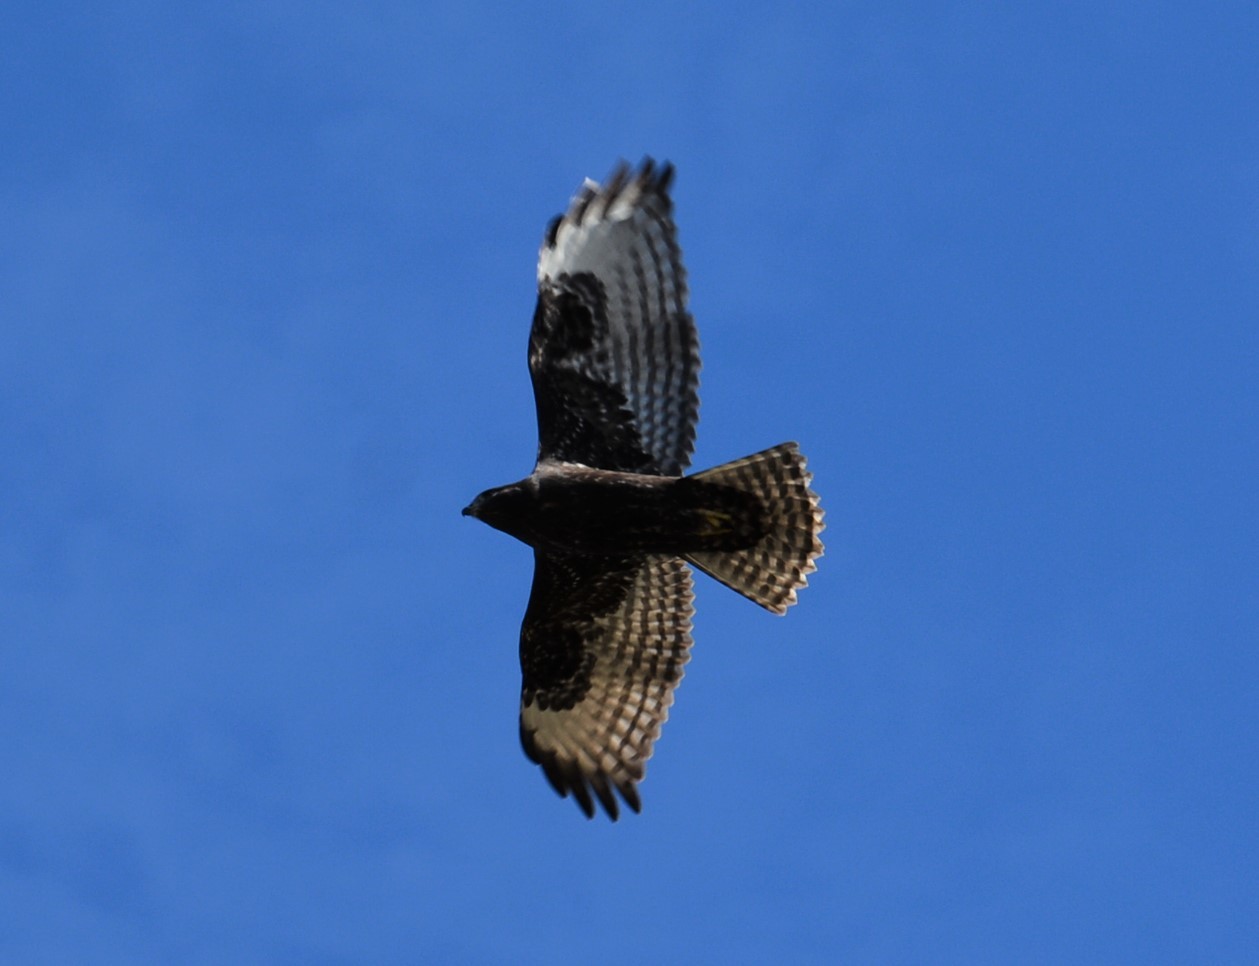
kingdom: Animalia
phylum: Chordata
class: Aves
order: Accipitriformes
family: Accipitridae
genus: Buteo
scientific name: Buteo jamaicensis
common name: Red-tailed hawk
